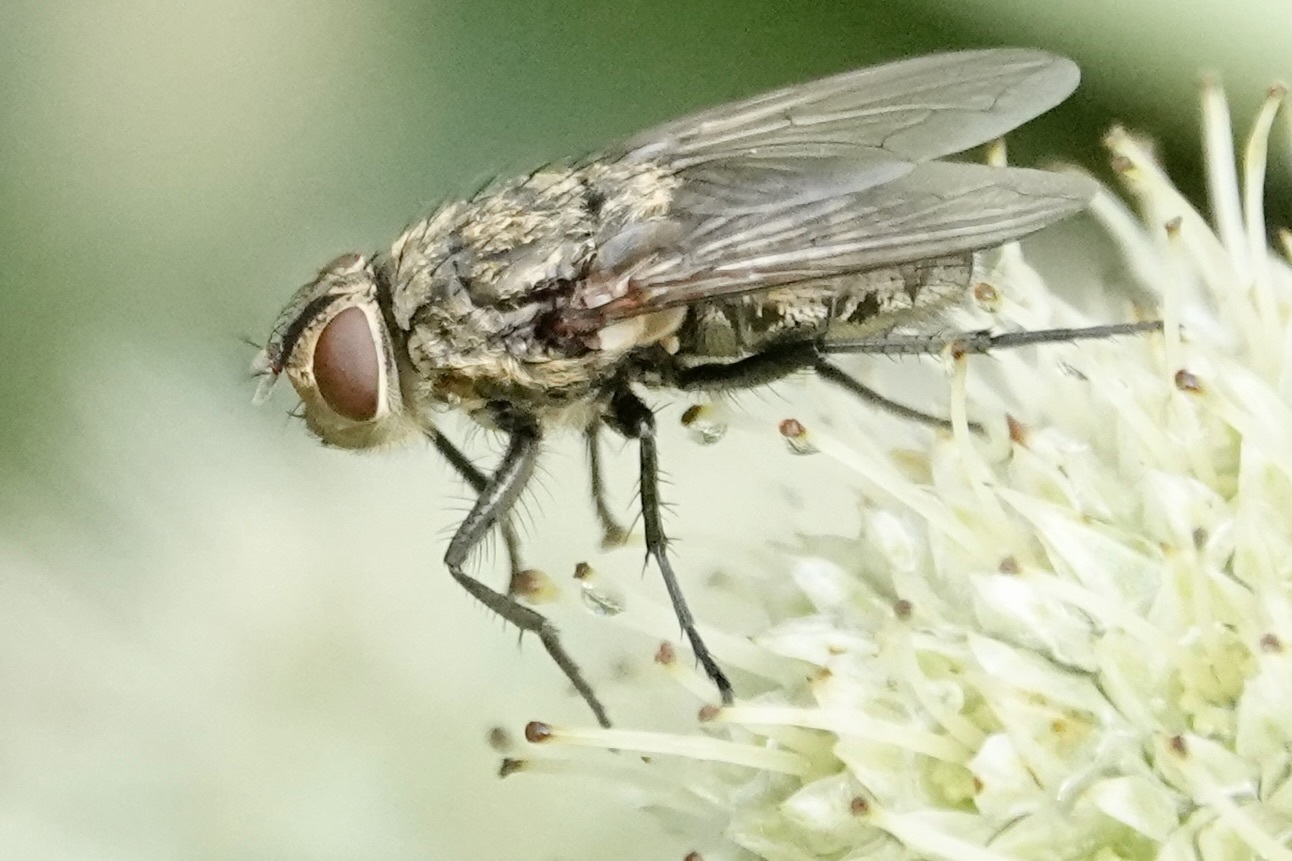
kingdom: Animalia
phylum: Arthropoda
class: Insecta
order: Diptera
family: Polleniidae
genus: Pollenia
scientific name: Pollenia
